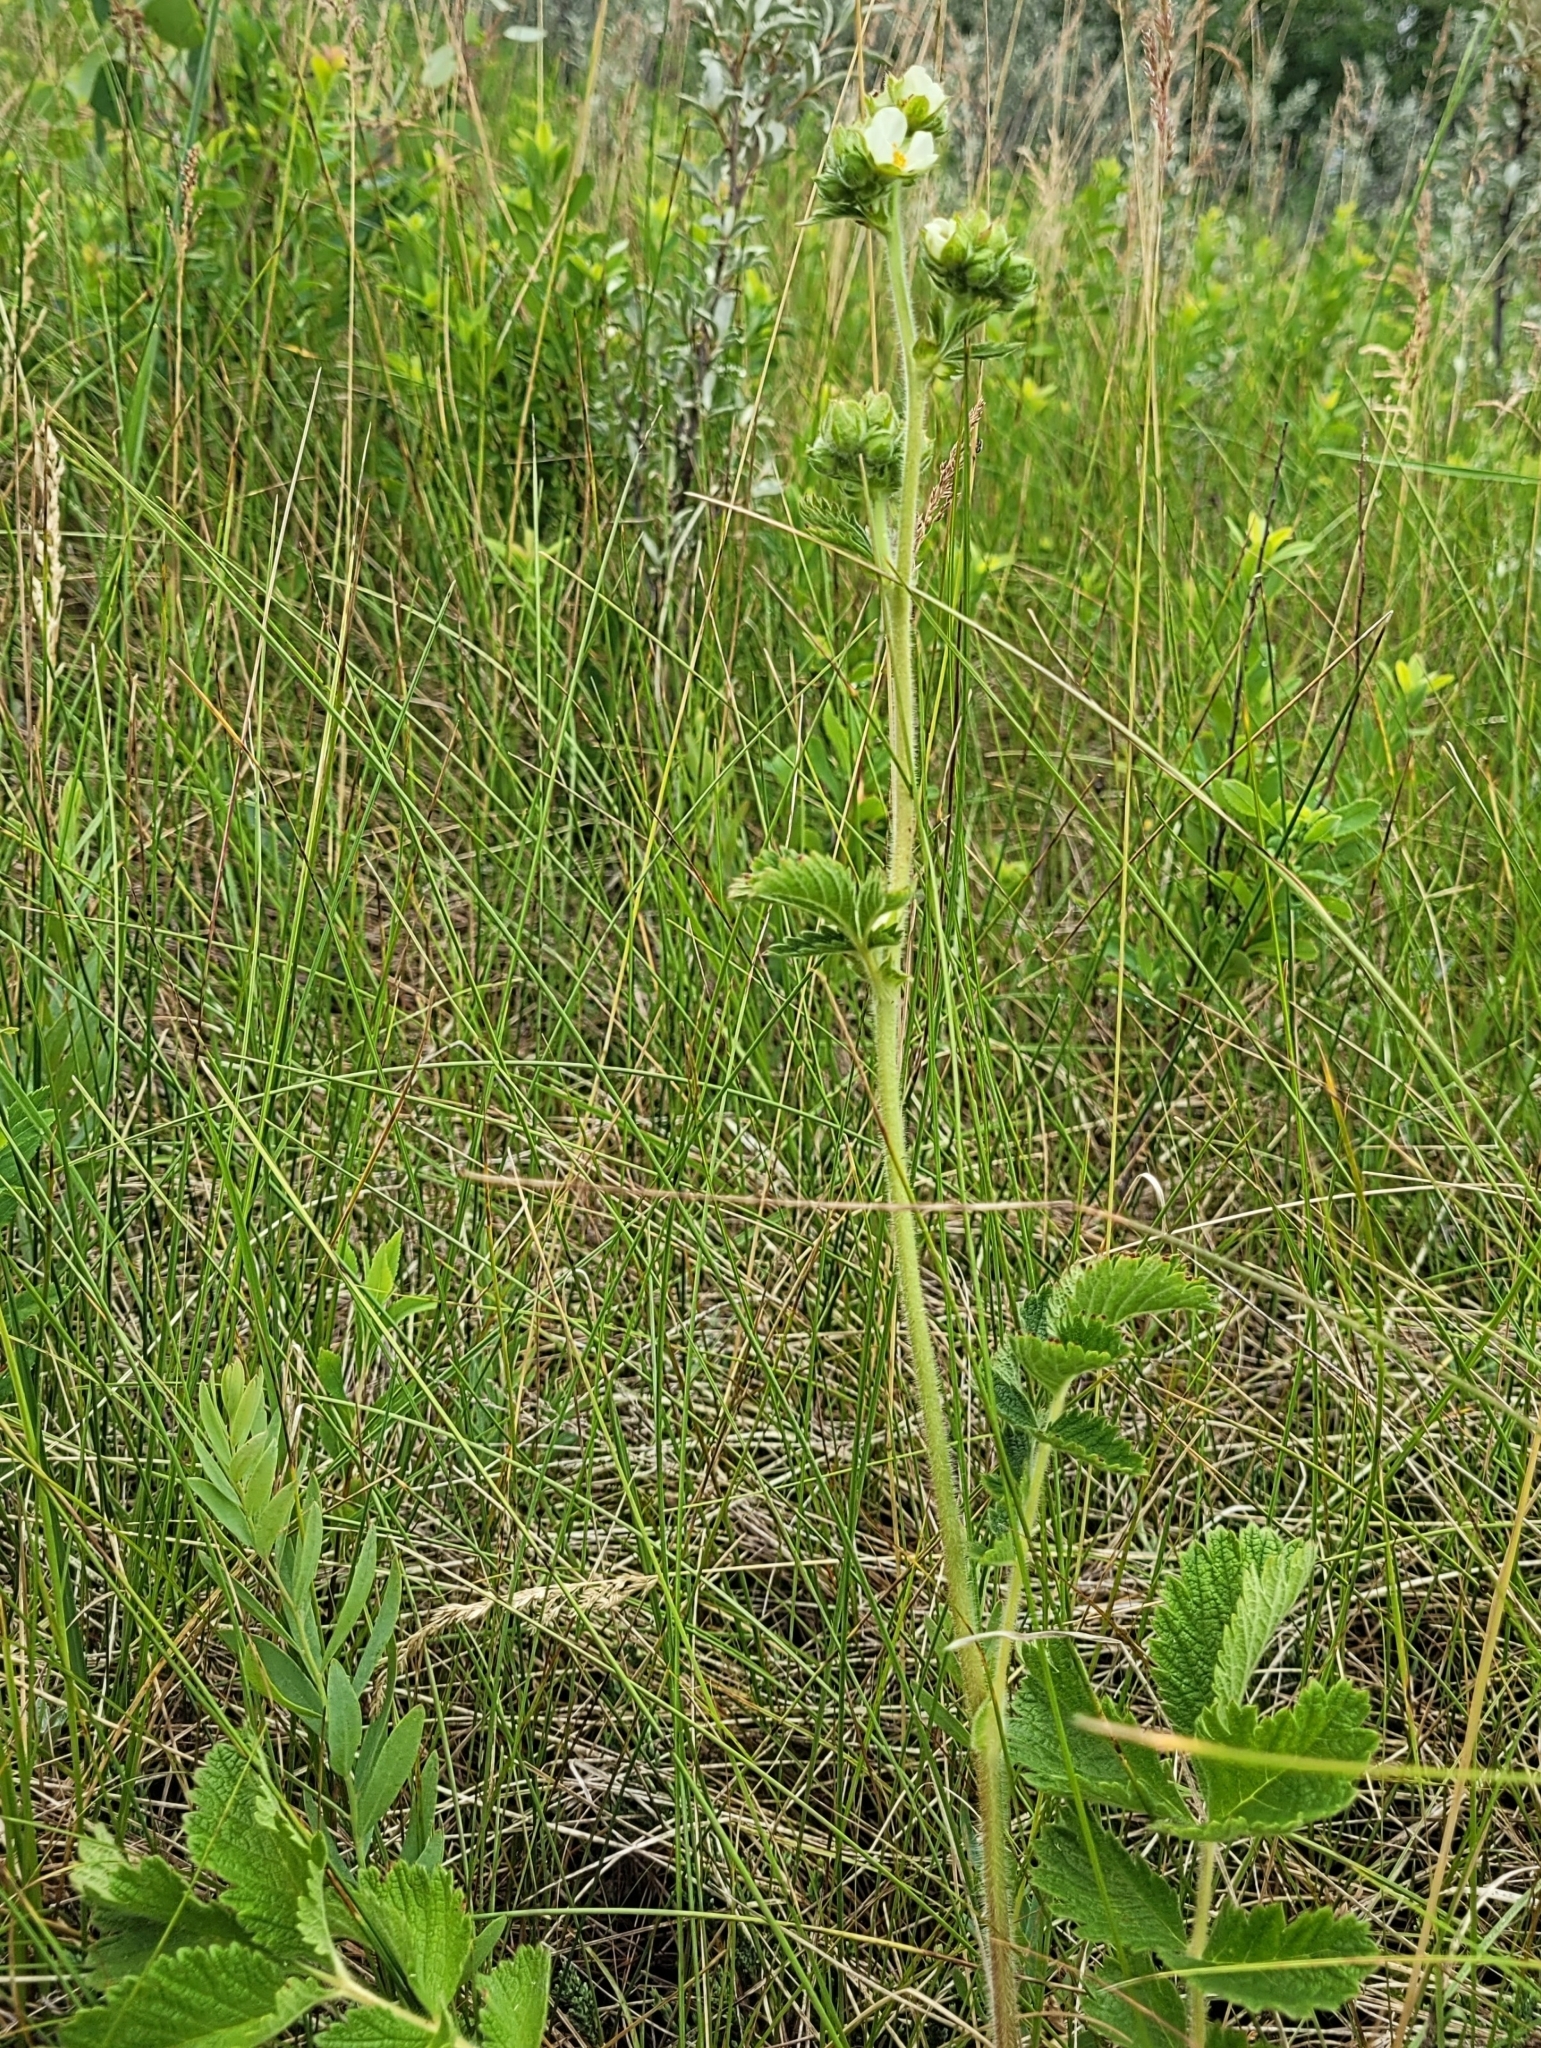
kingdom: Plantae
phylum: Tracheophyta
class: Magnoliopsida
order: Rosales
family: Rosaceae
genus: Drymocallis
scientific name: Drymocallis arguta
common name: Tall cinquefoil
